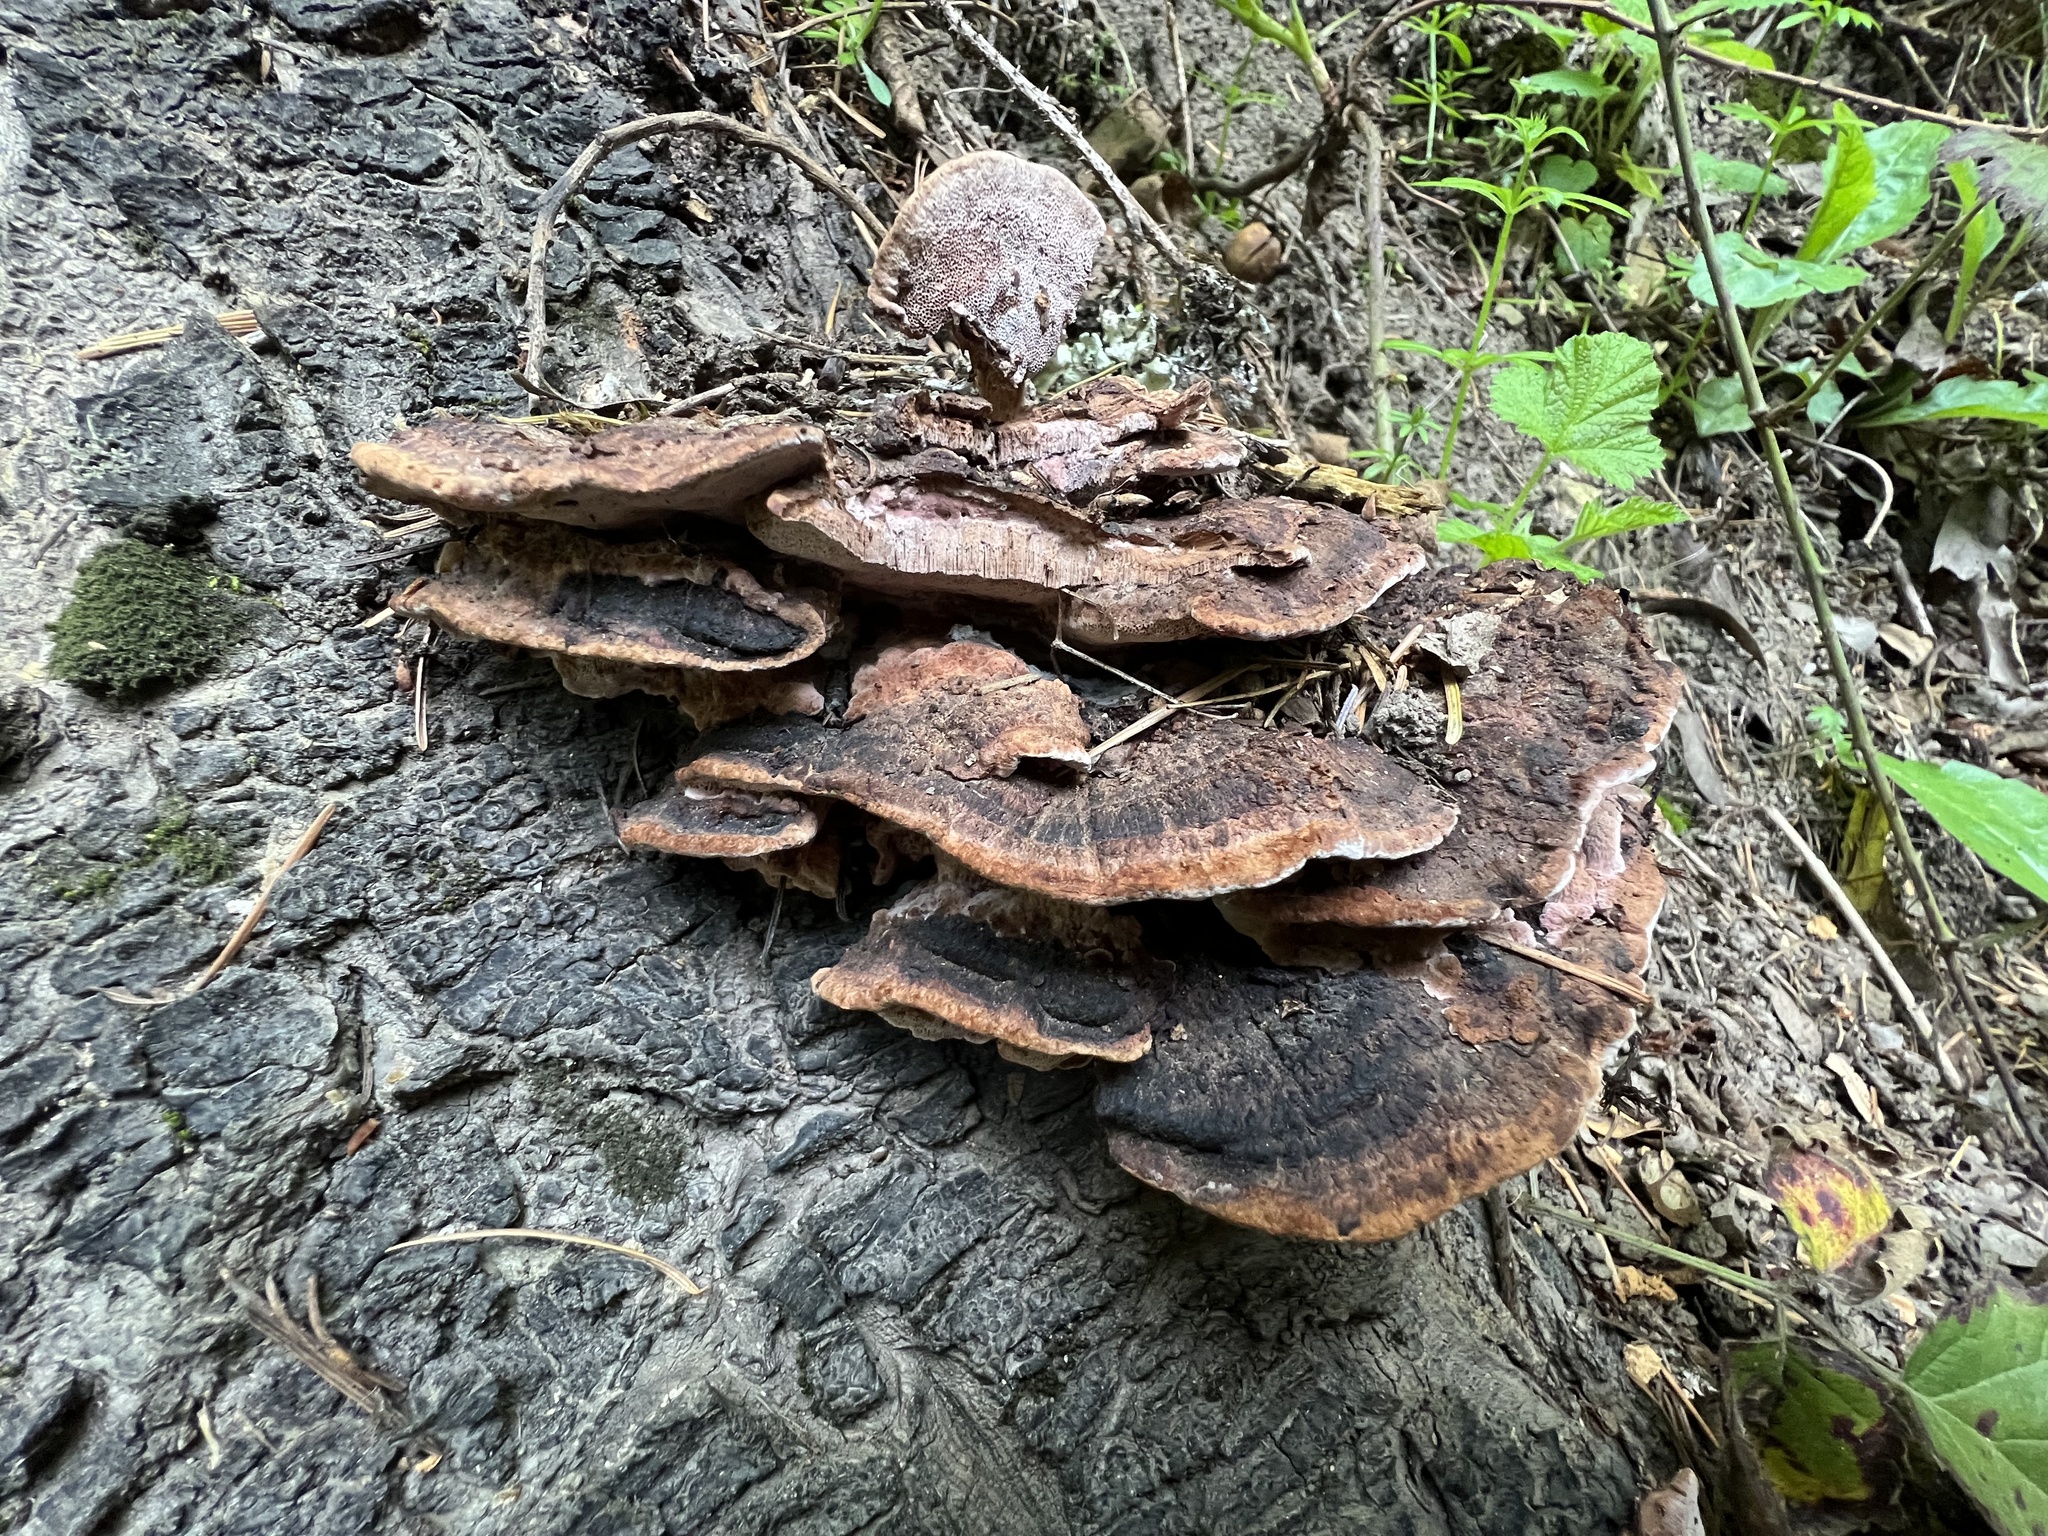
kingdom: Fungi
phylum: Basidiomycota
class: Agaricomycetes
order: Polyporales
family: Fomitopsidaceae
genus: Rhodofomes
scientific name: Rhodofomes cajanderi
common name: Rosy conk
